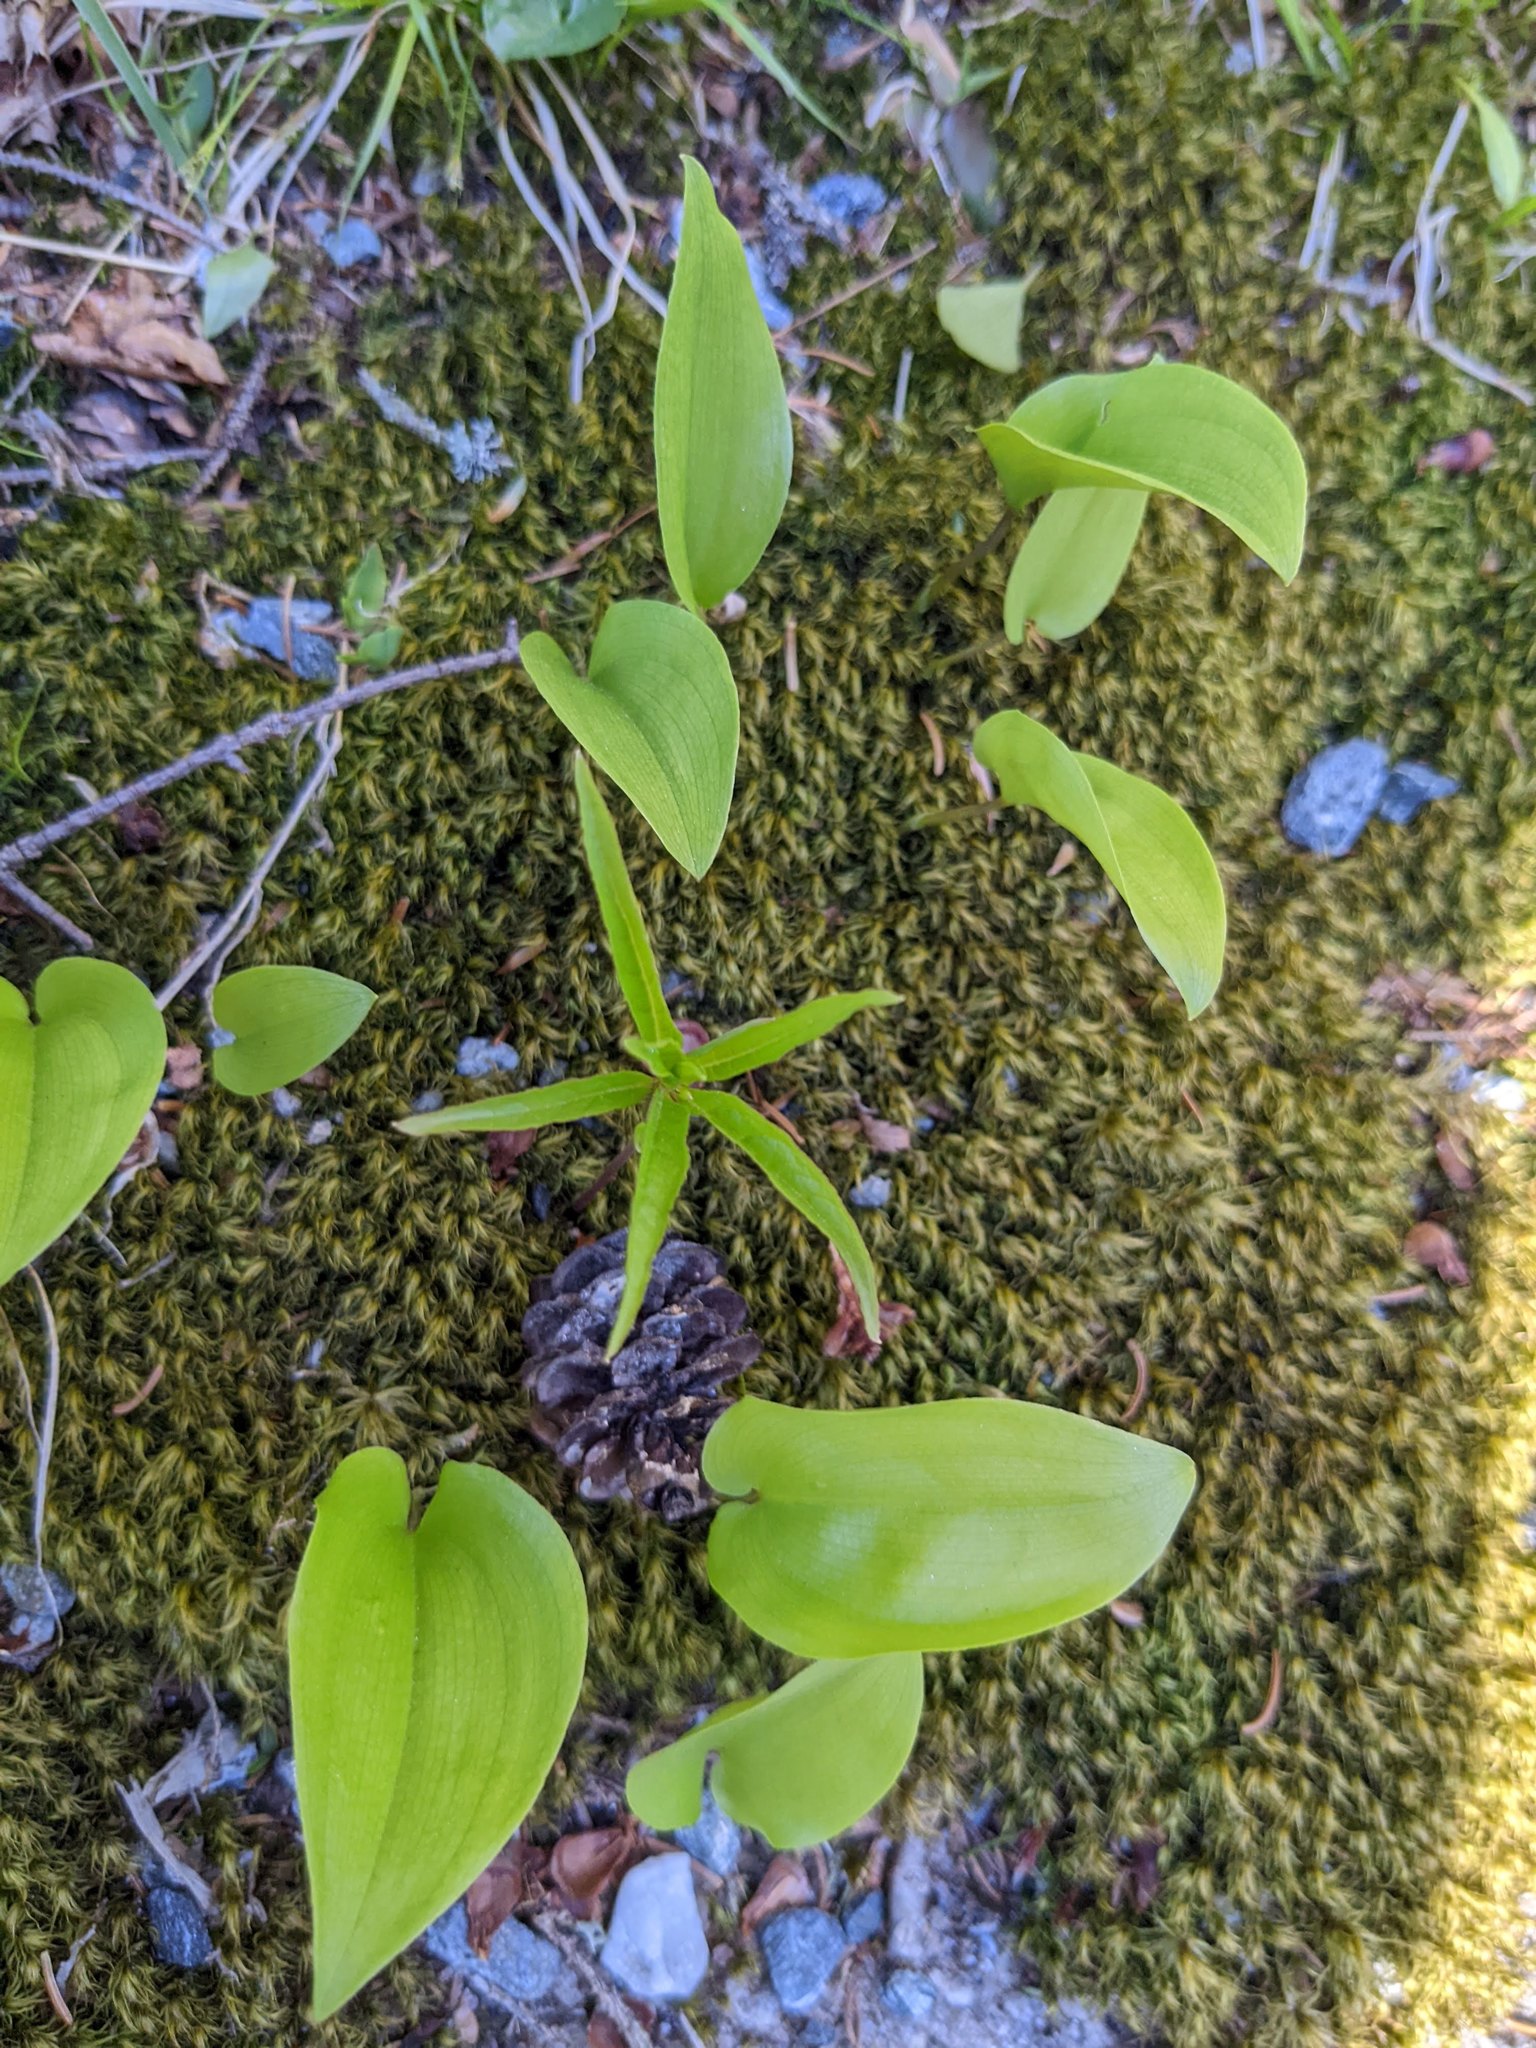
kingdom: Plantae
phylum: Tracheophyta
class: Liliopsida
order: Asparagales
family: Asparagaceae
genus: Maianthemum
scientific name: Maianthemum canadense
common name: False lily-of-the-valley
